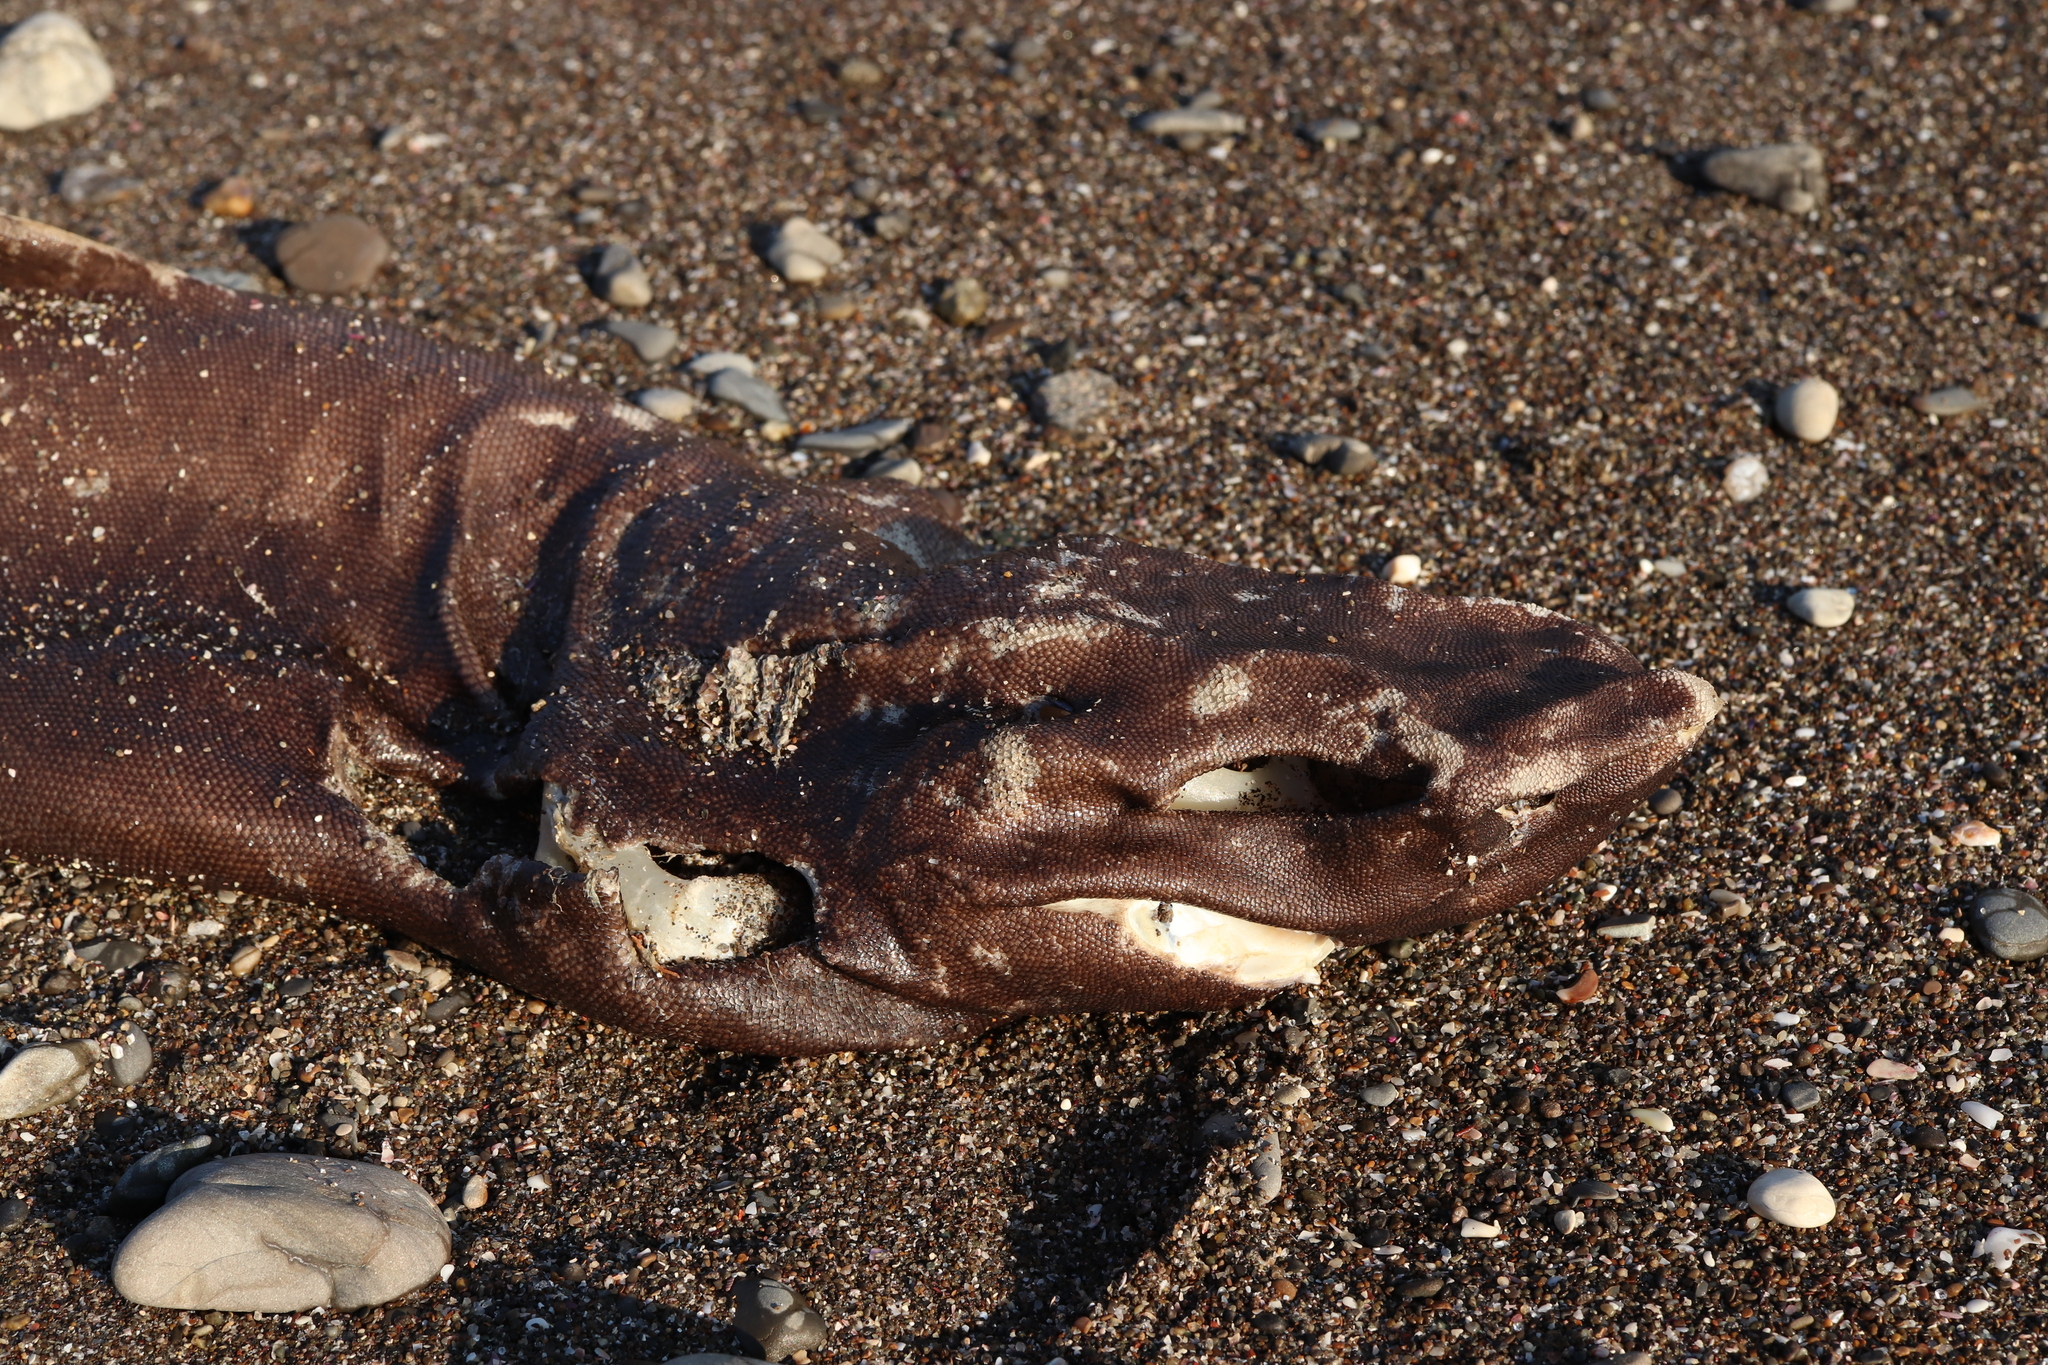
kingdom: Animalia
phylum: Chordata
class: Elasmobranchii
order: Squaliformes
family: Somniosidae
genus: Centroscymnus
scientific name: Centroscymnus coelolepis
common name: Portuguese dogfish
